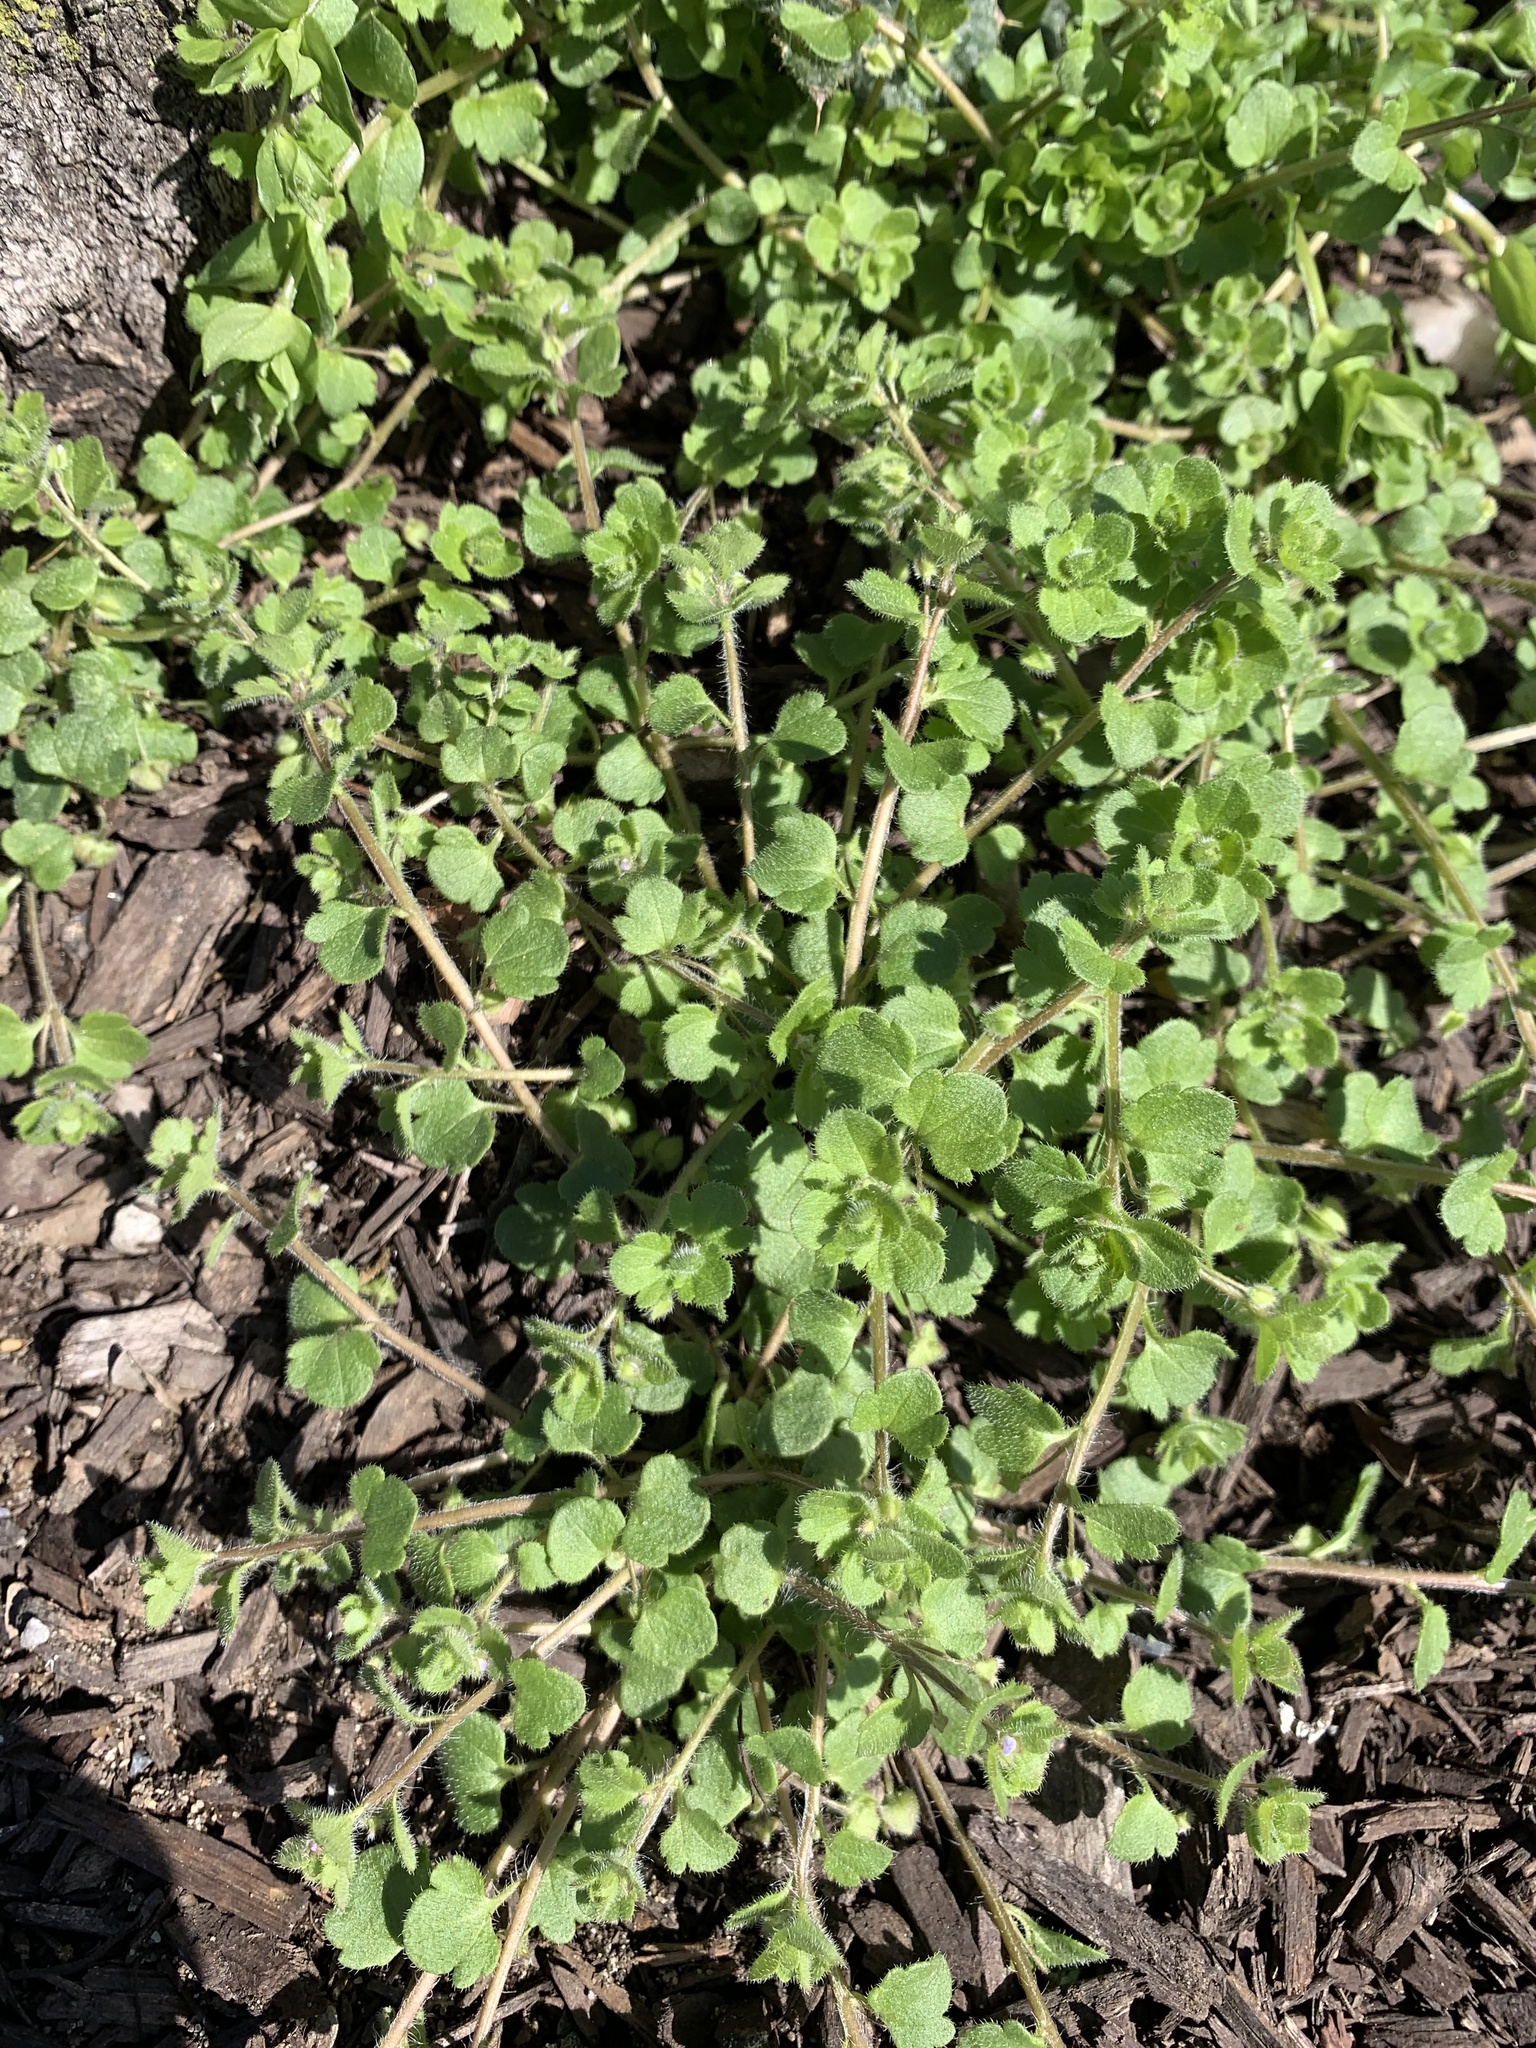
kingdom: Plantae
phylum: Tracheophyta
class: Magnoliopsida
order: Lamiales
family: Plantaginaceae
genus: Veronica
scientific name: Veronica sublobata
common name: False ivy-leaved speedwell
